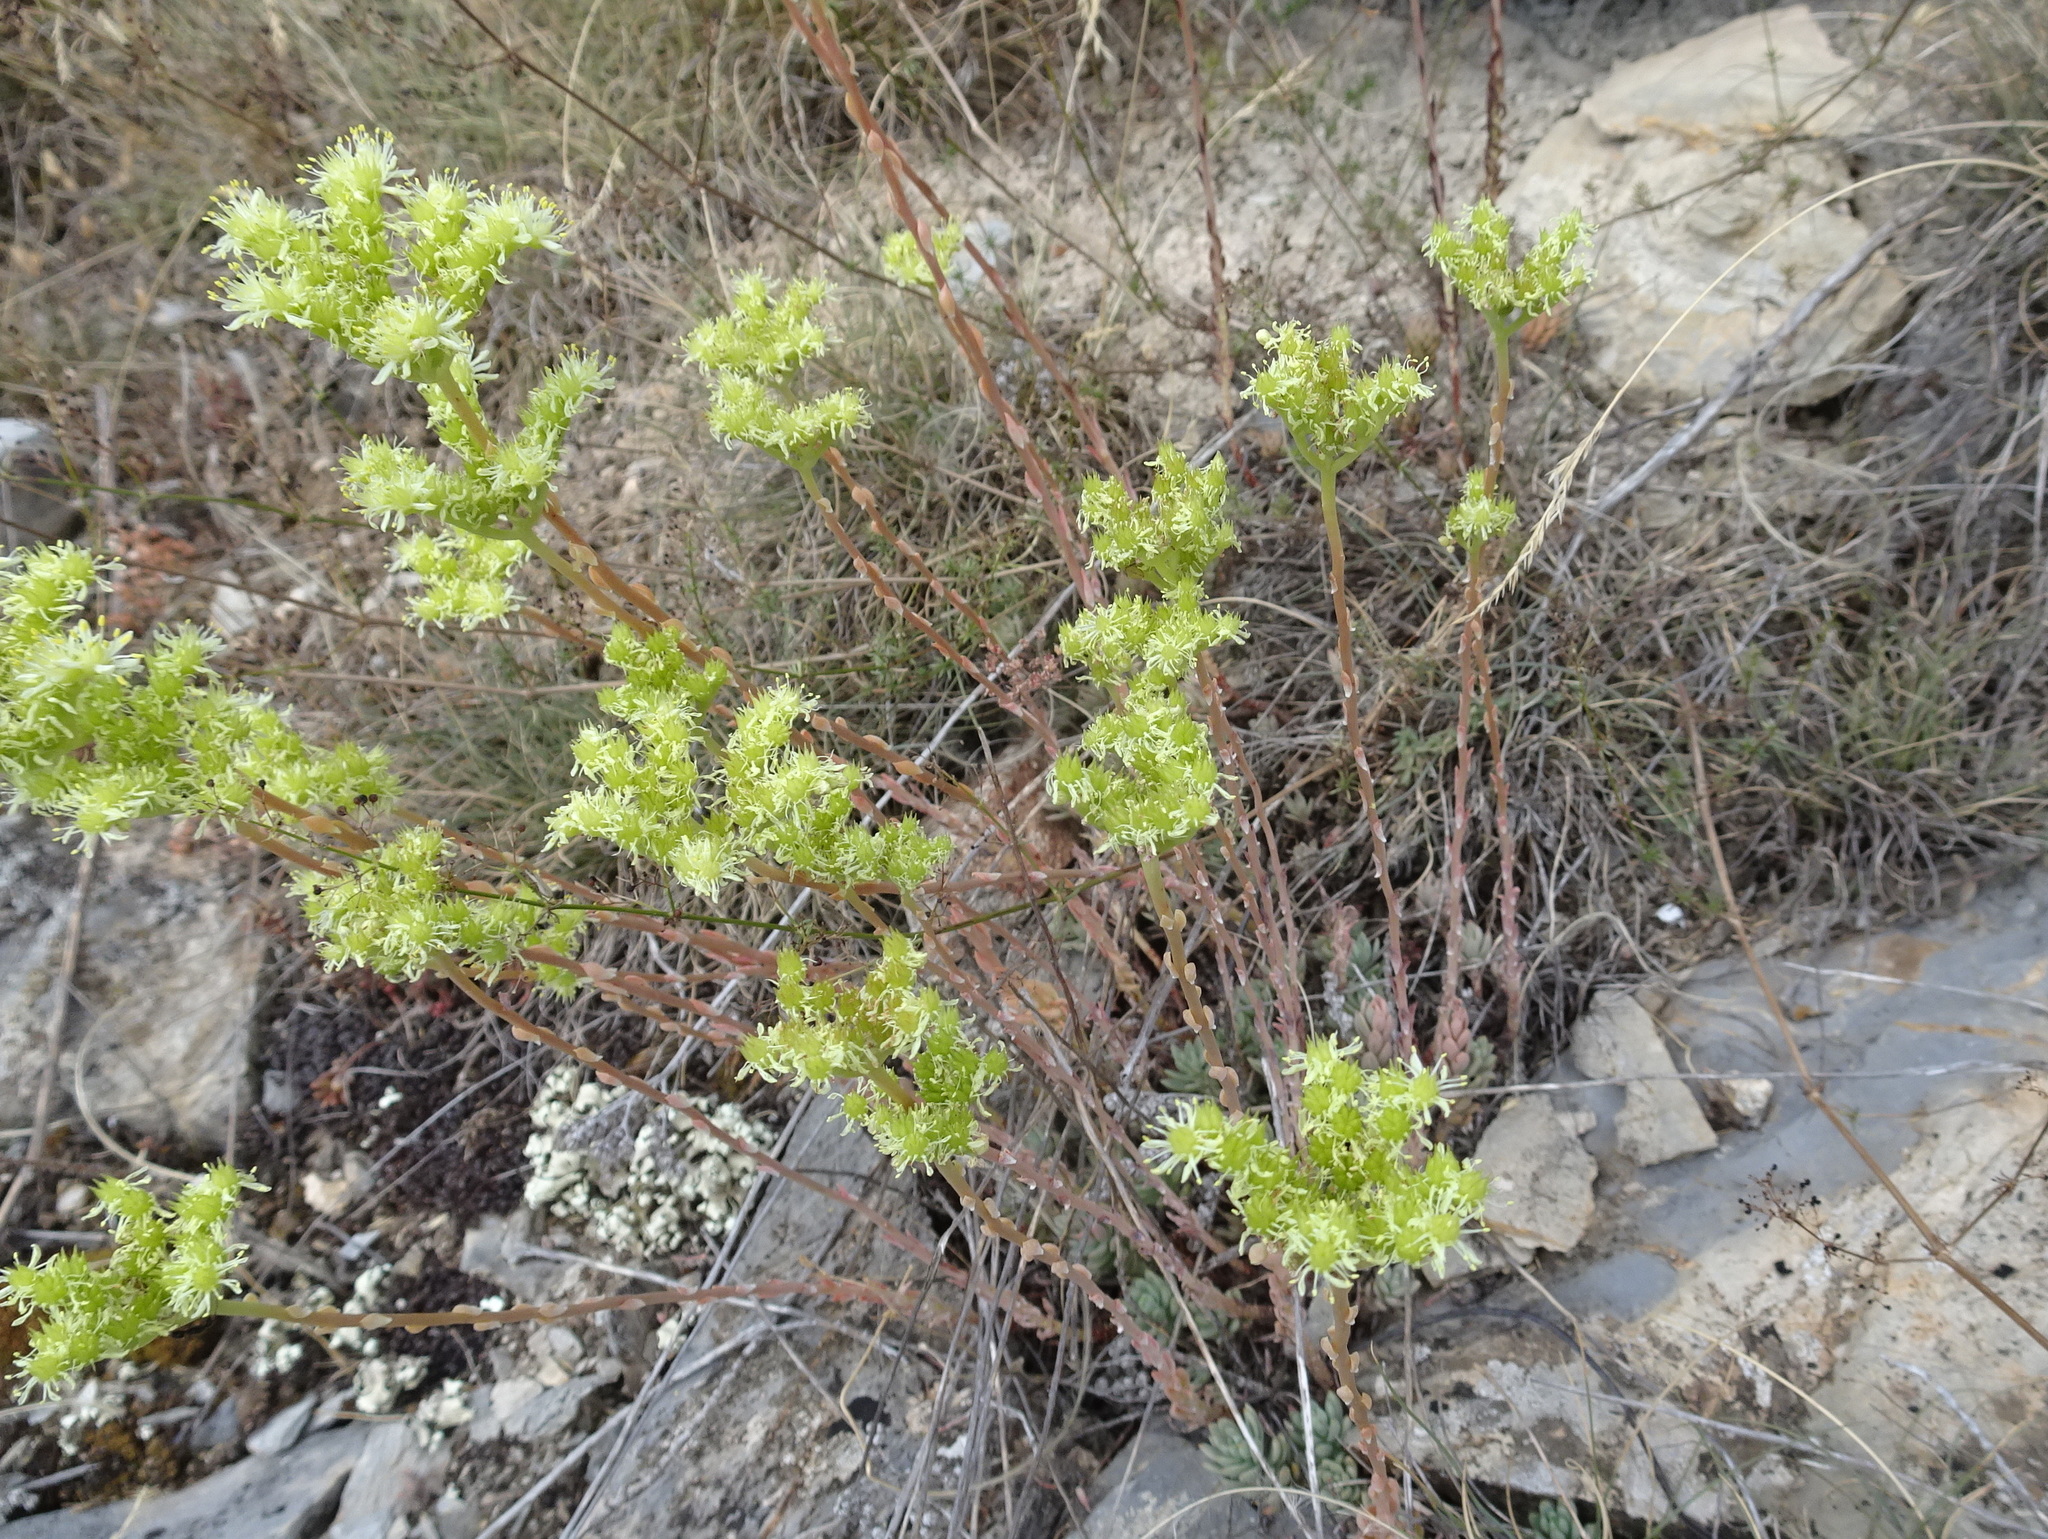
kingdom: Plantae
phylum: Tracheophyta
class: Magnoliopsida
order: Saxifragales
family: Crassulaceae
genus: Petrosedum
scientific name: Petrosedum sediforme
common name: Pale stonecrop
